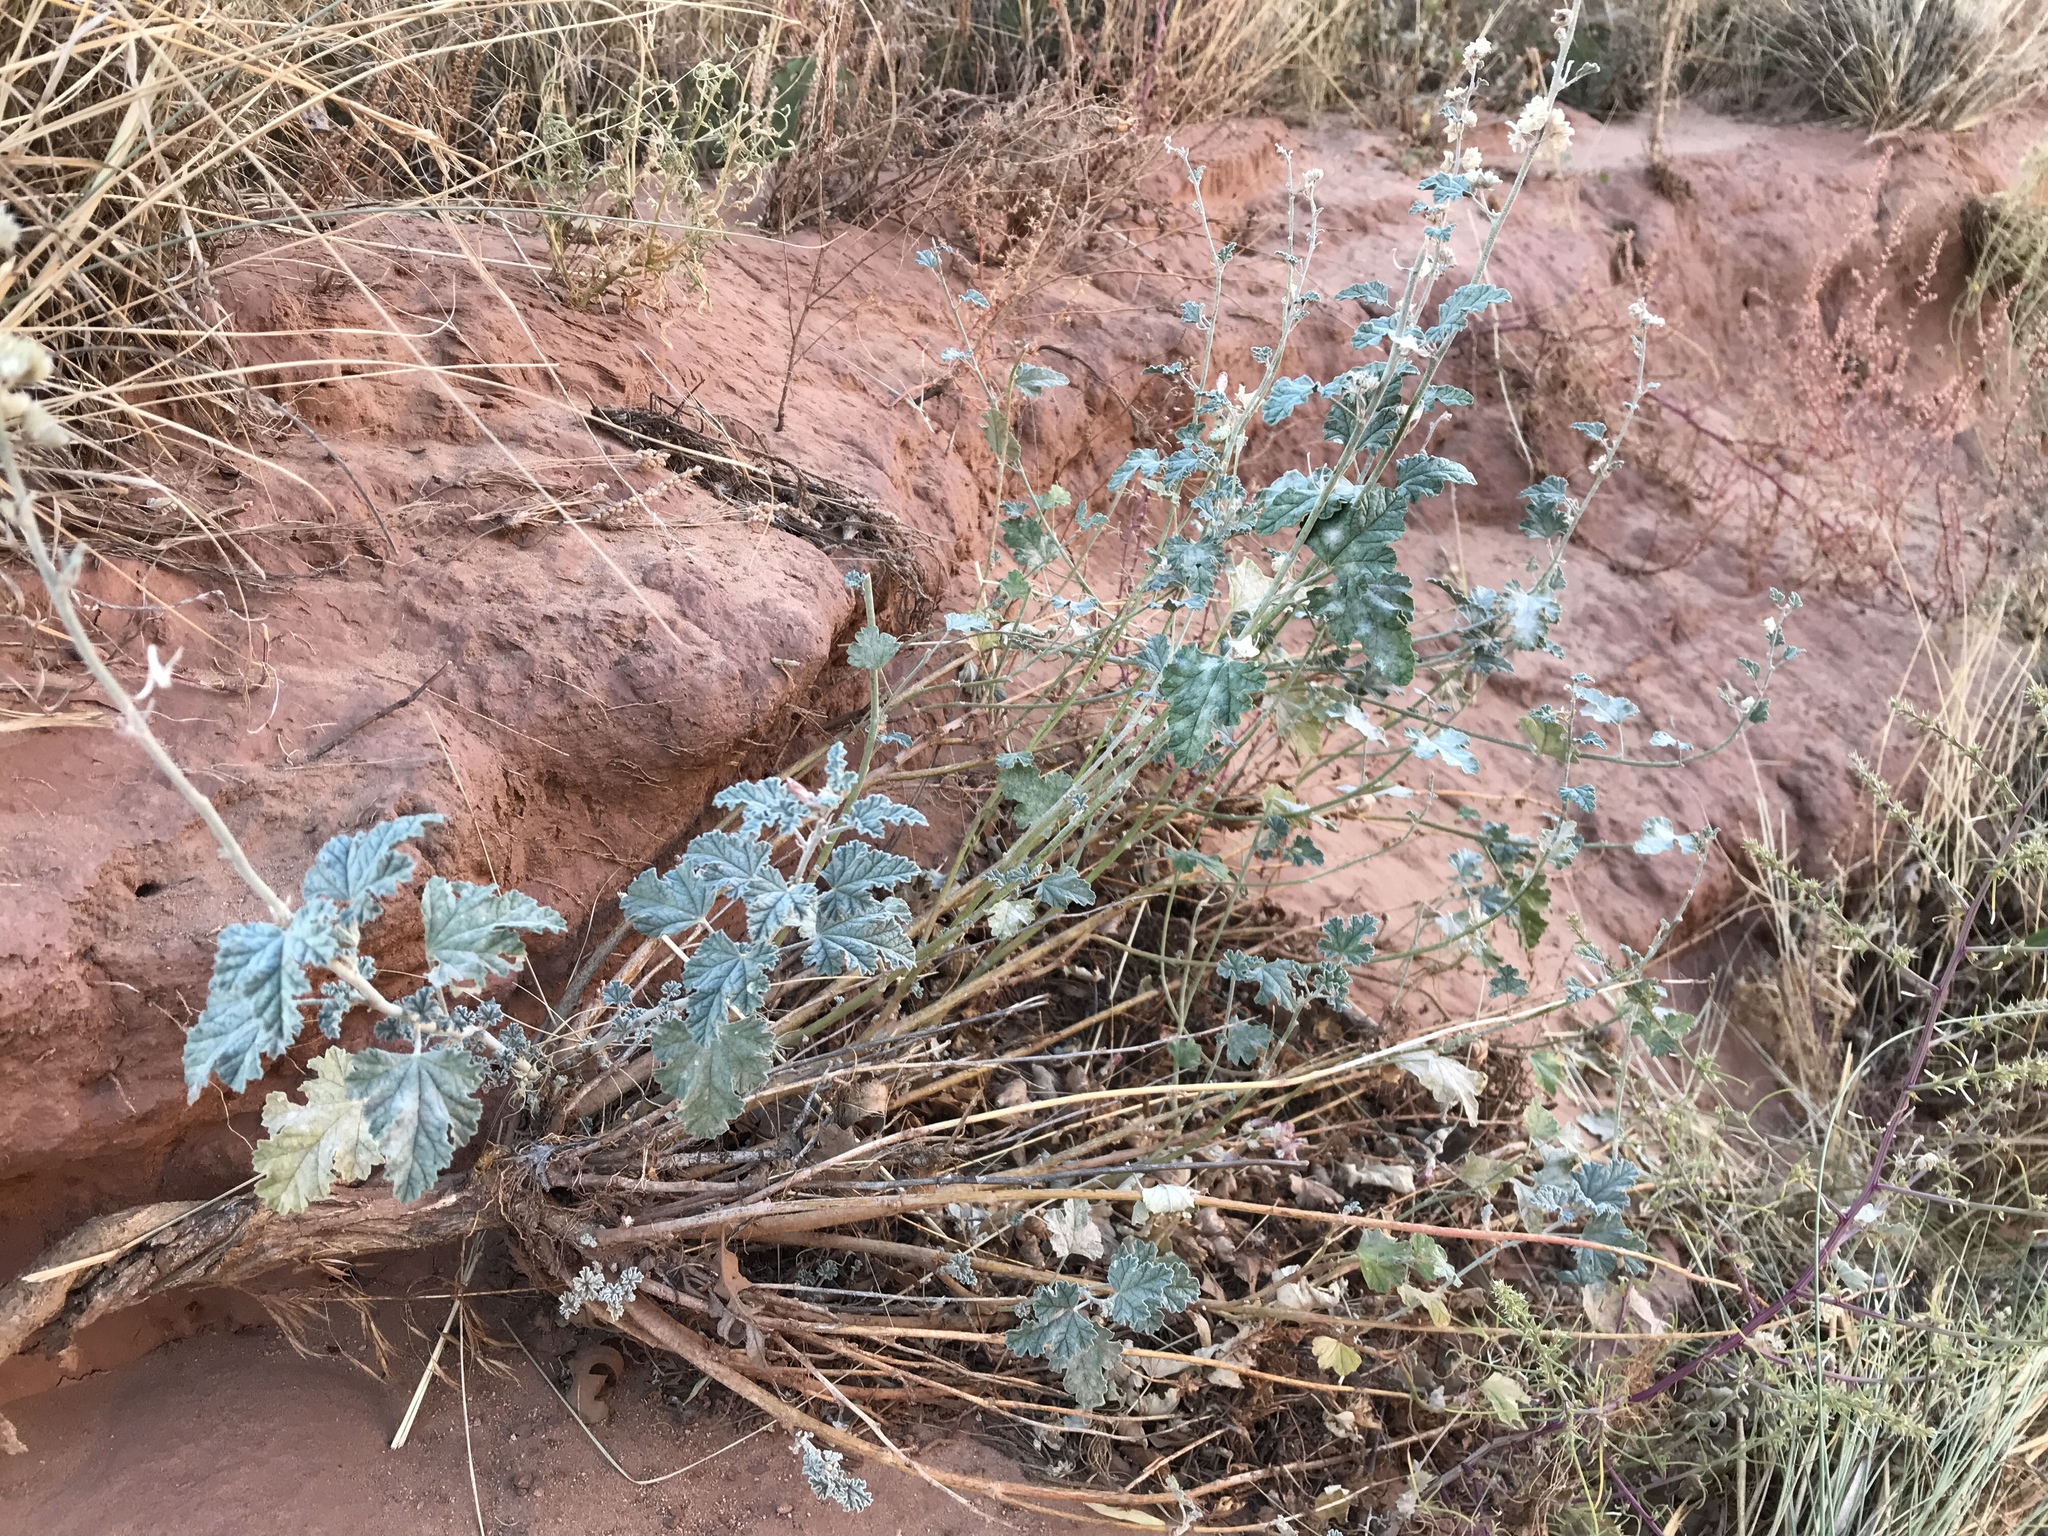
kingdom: Plantae
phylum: Tracheophyta
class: Magnoliopsida
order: Malvales
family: Malvaceae
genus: Sphaeralcea
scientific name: Sphaeralcea parvifolia
